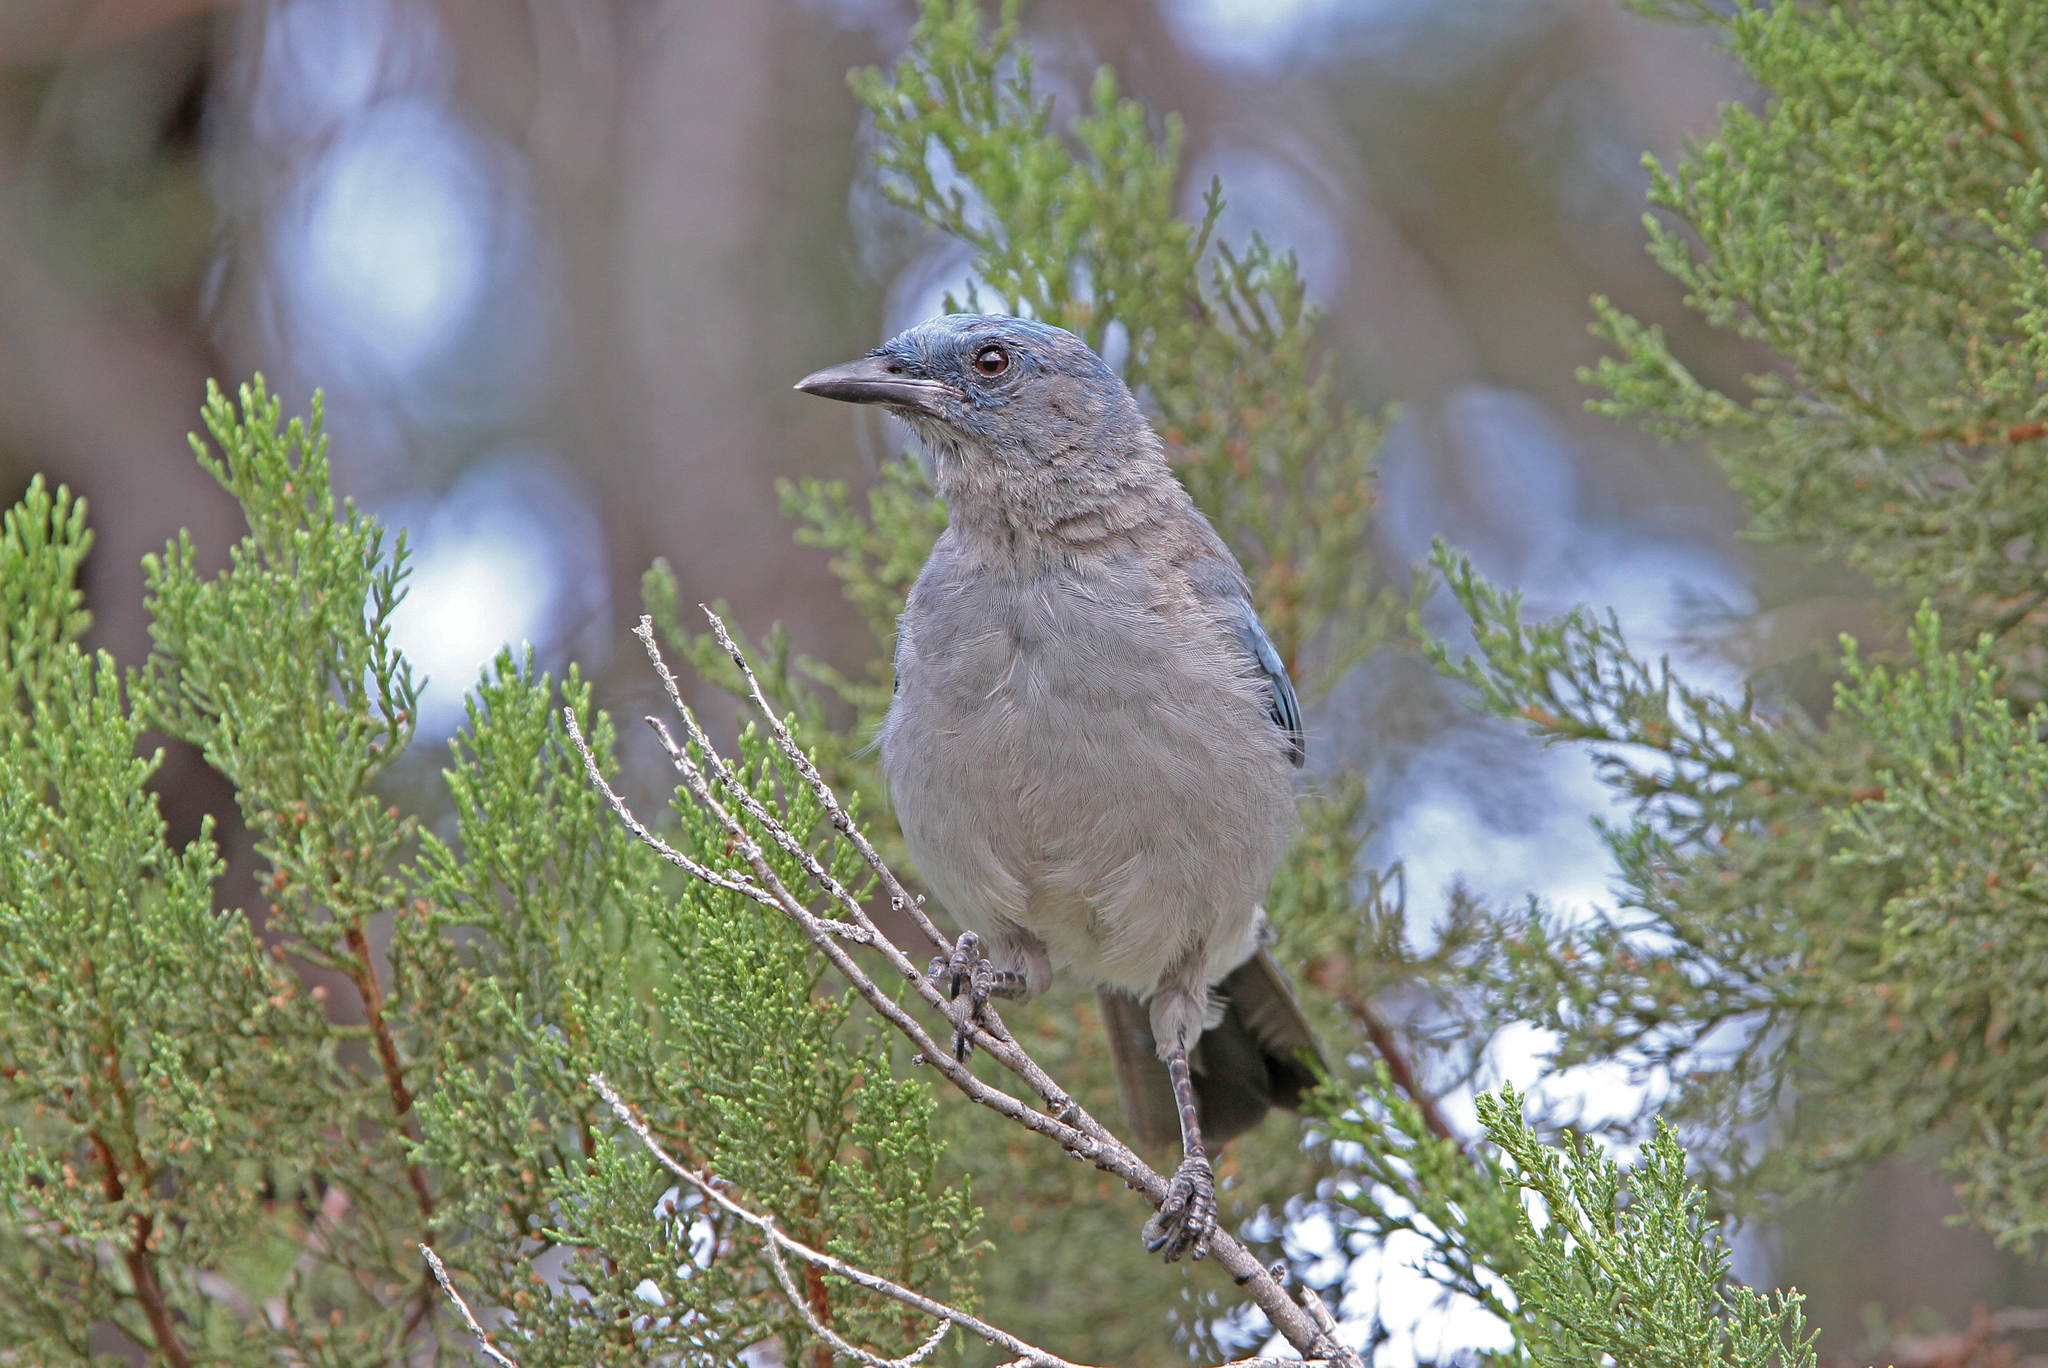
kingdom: Animalia
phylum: Chordata
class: Aves
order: Passeriformes
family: Corvidae
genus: Aphelocoma
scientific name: Aphelocoma wollweberi
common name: Mexican jay
